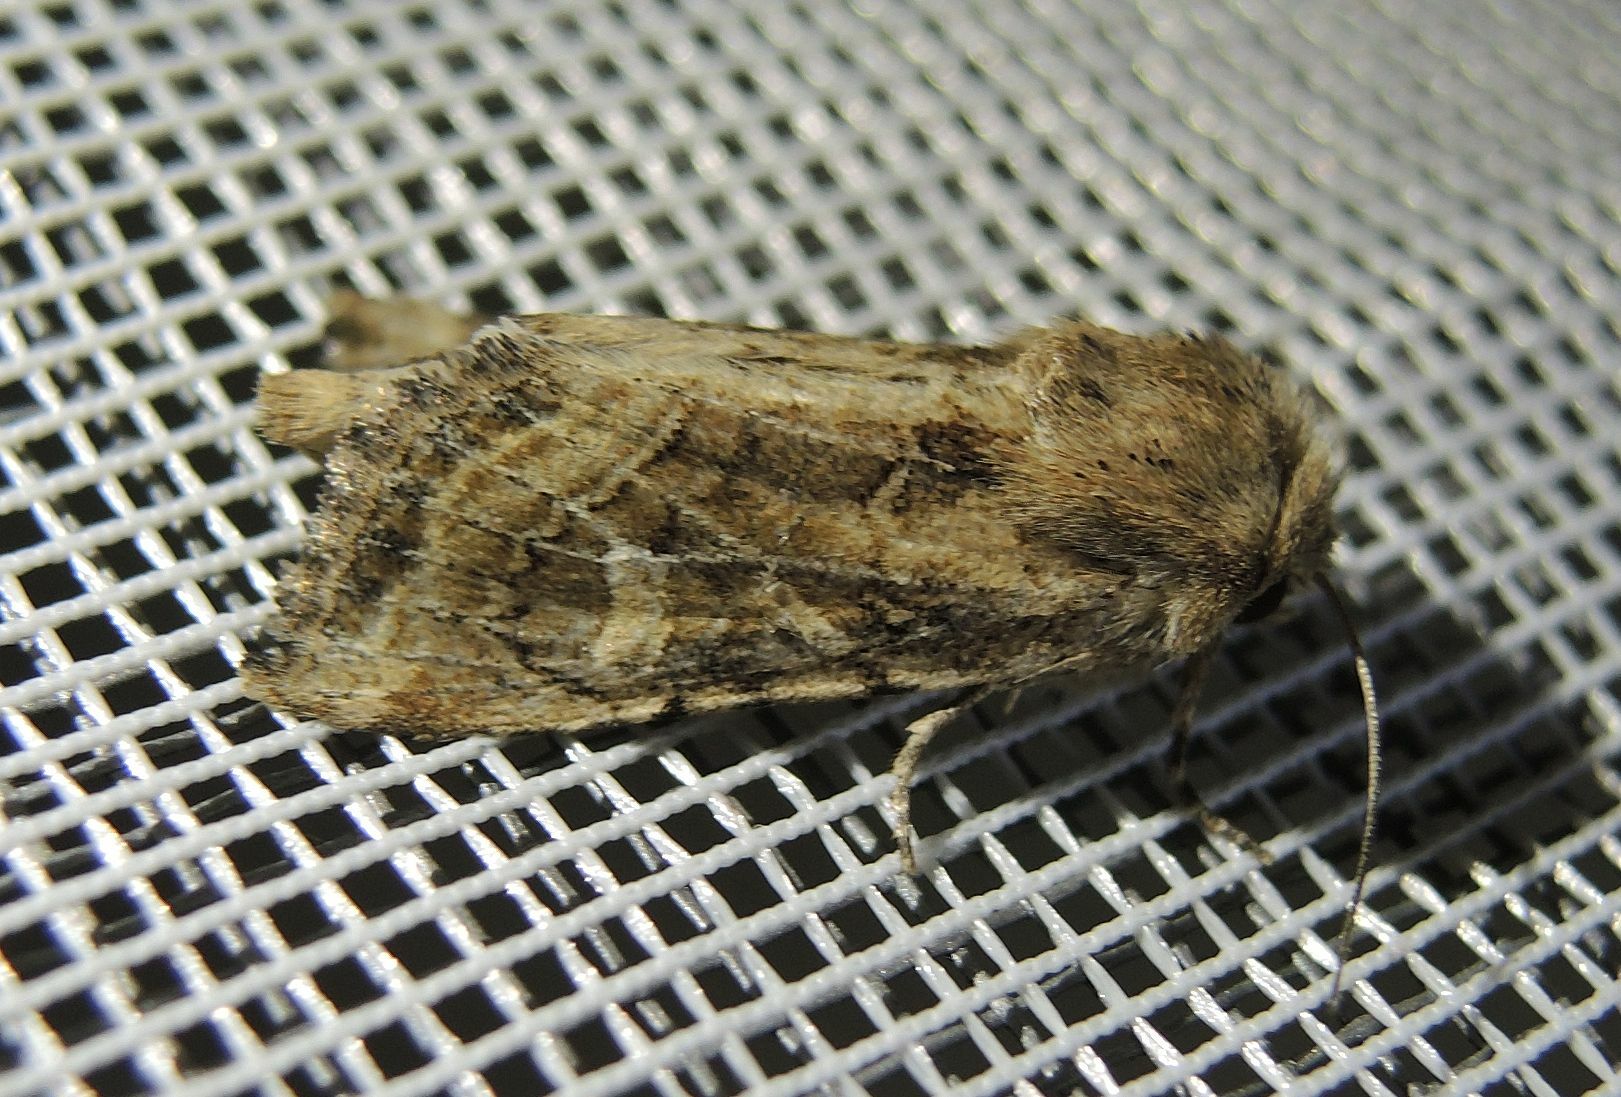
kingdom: Animalia
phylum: Arthropoda
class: Insecta
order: Lepidoptera
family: Noctuidae
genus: Luperina
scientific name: Luperina dumerilii
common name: Dumeril's rustic
